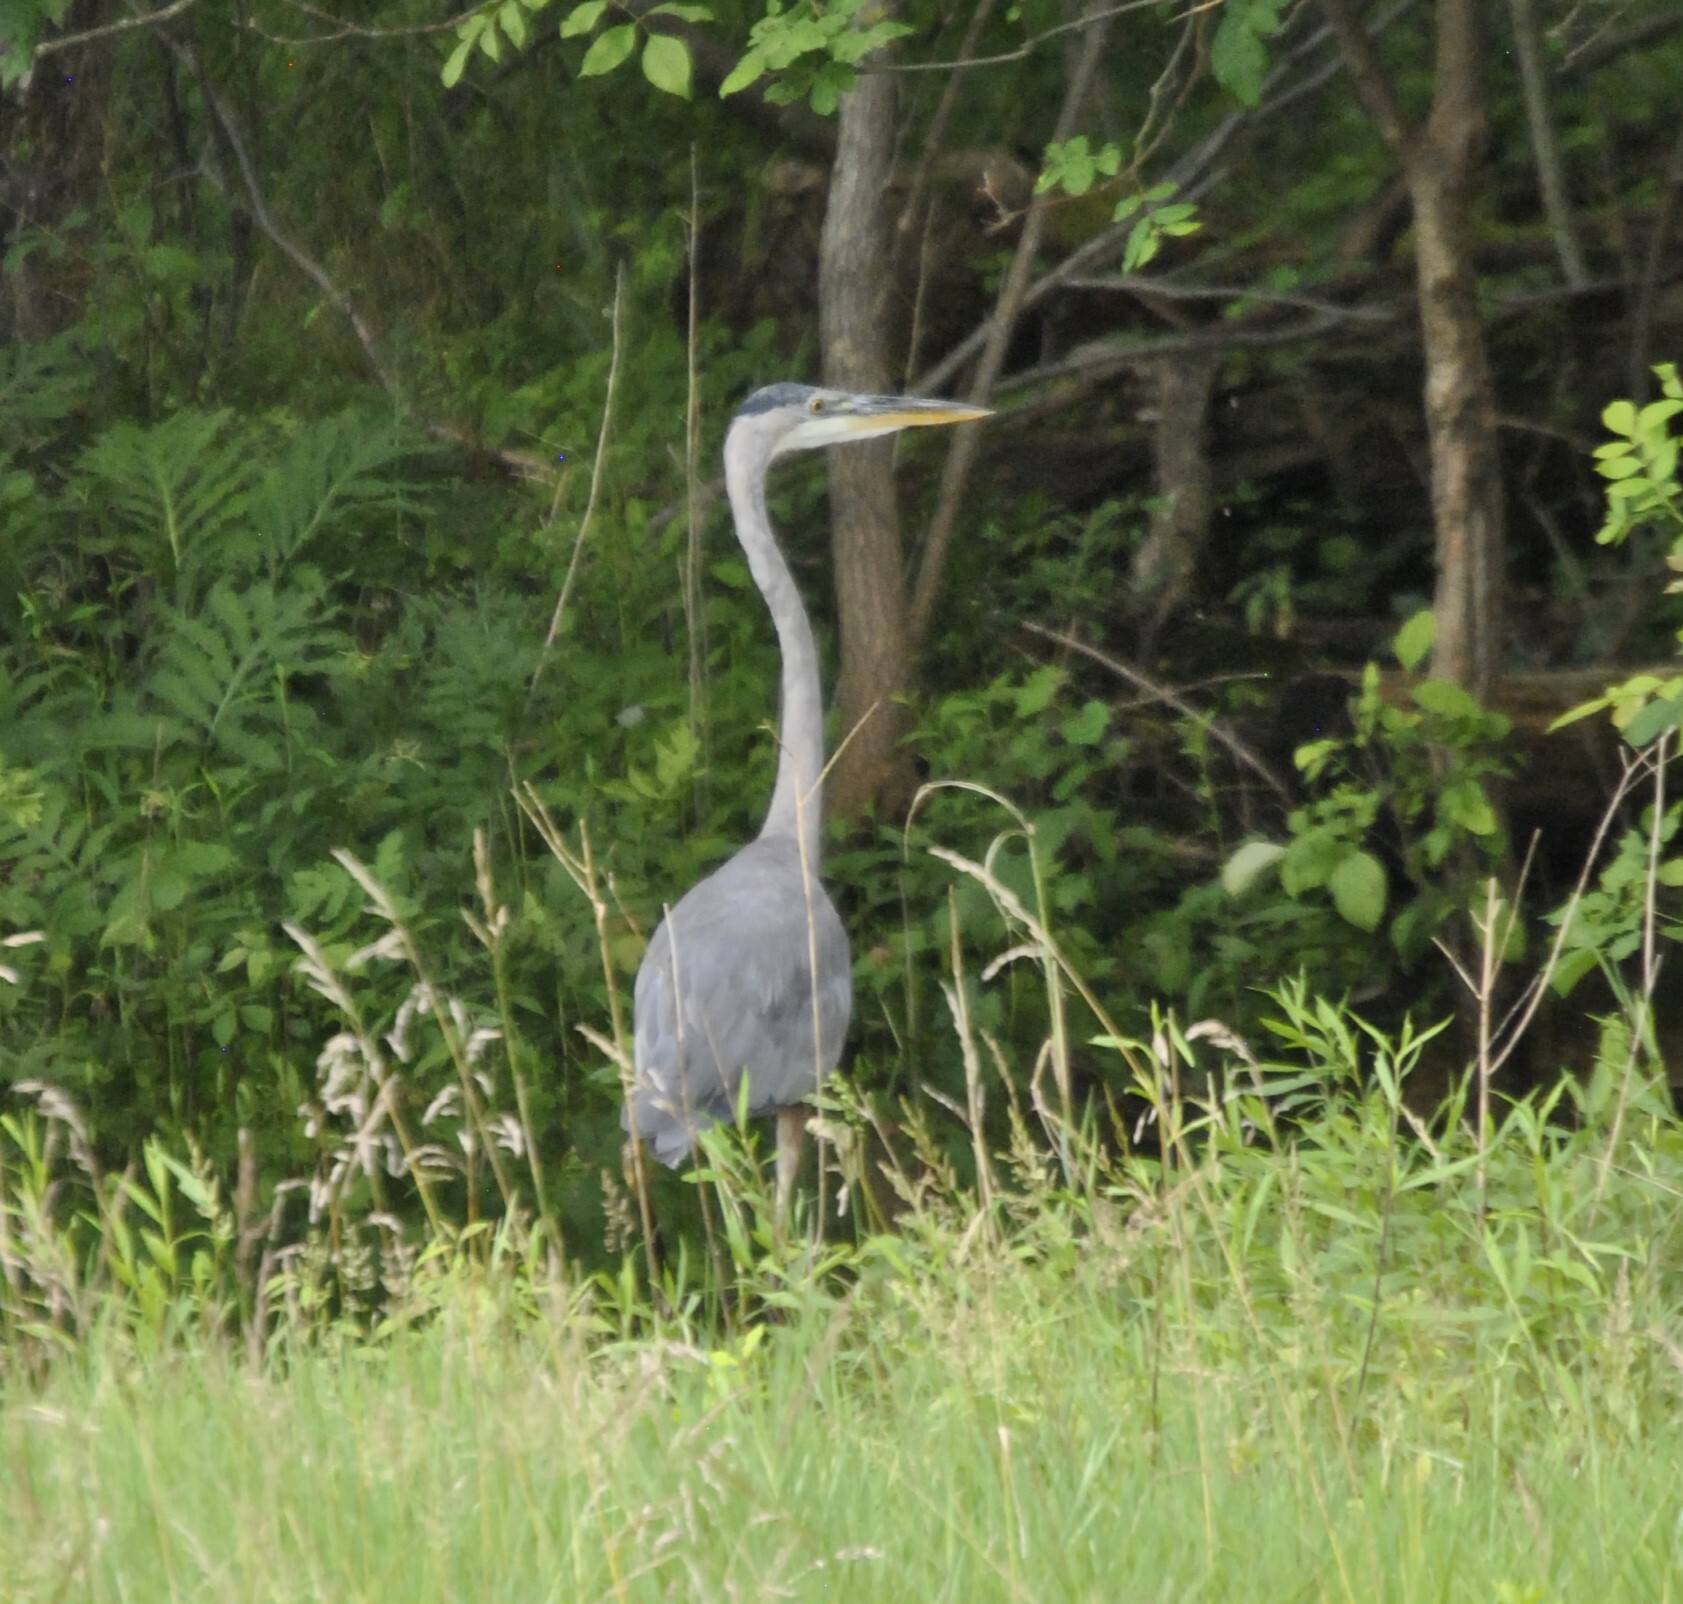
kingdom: Animalia
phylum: Chordata
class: Aves
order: Pelecaniformes
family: Ardeidae
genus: Ardea
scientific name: Ardea herodias
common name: Great blue heron
